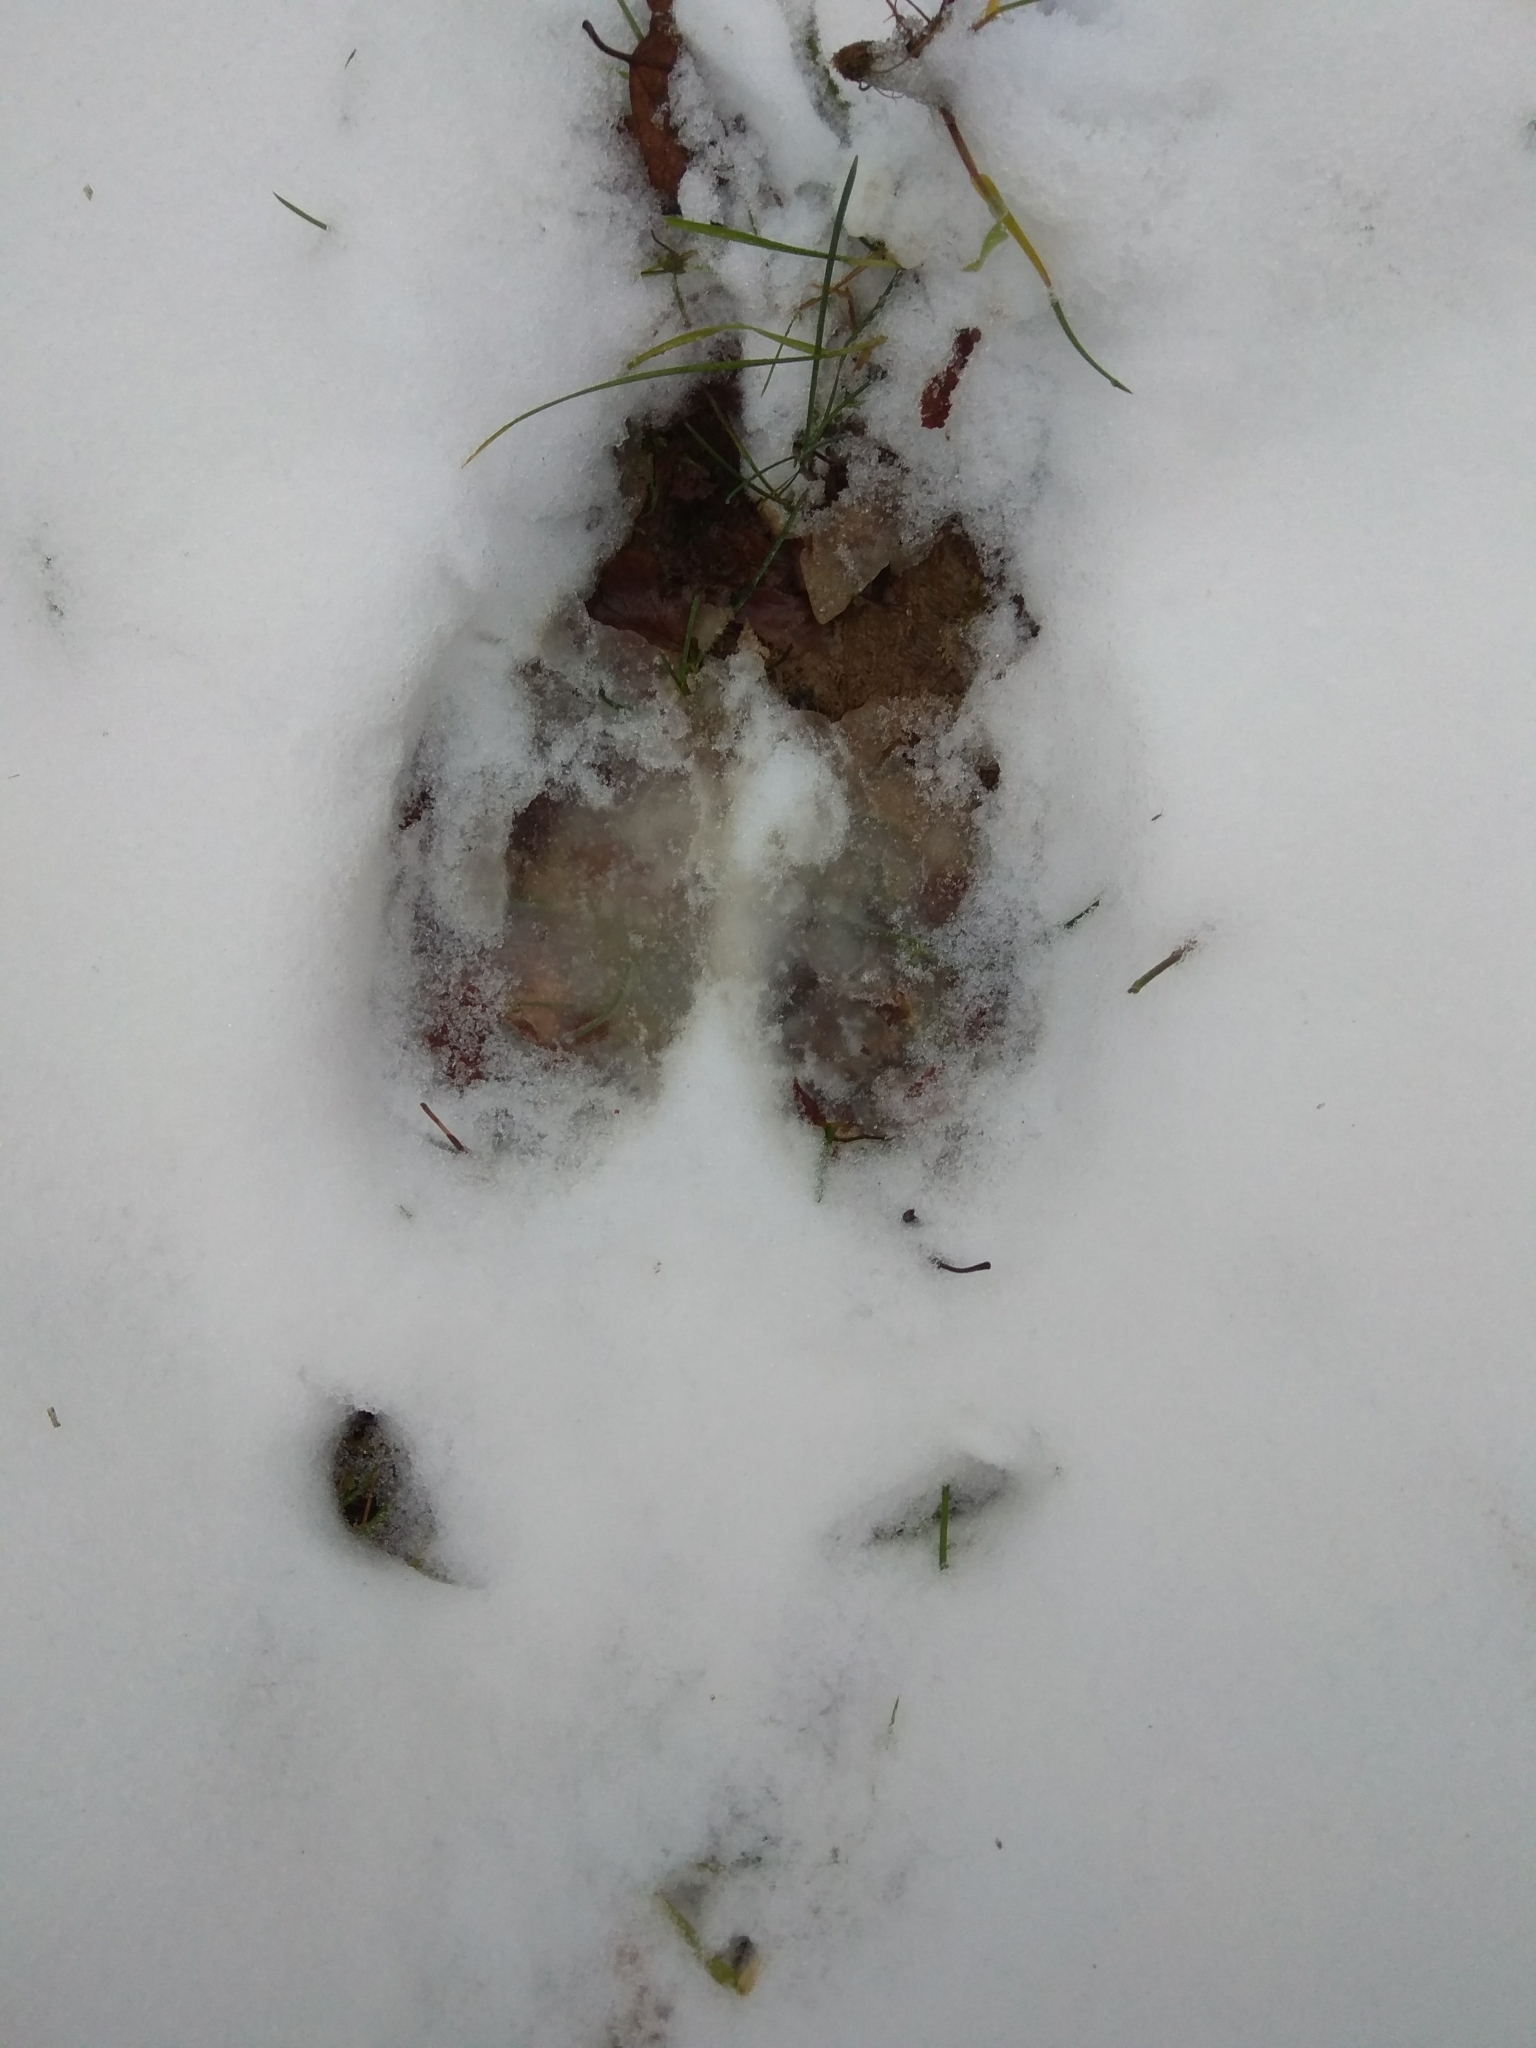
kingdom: Animalia
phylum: Chordata
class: Mammalia
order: Artiodactyla
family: Cervidae
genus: Alces
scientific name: Alces alces
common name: Moose
